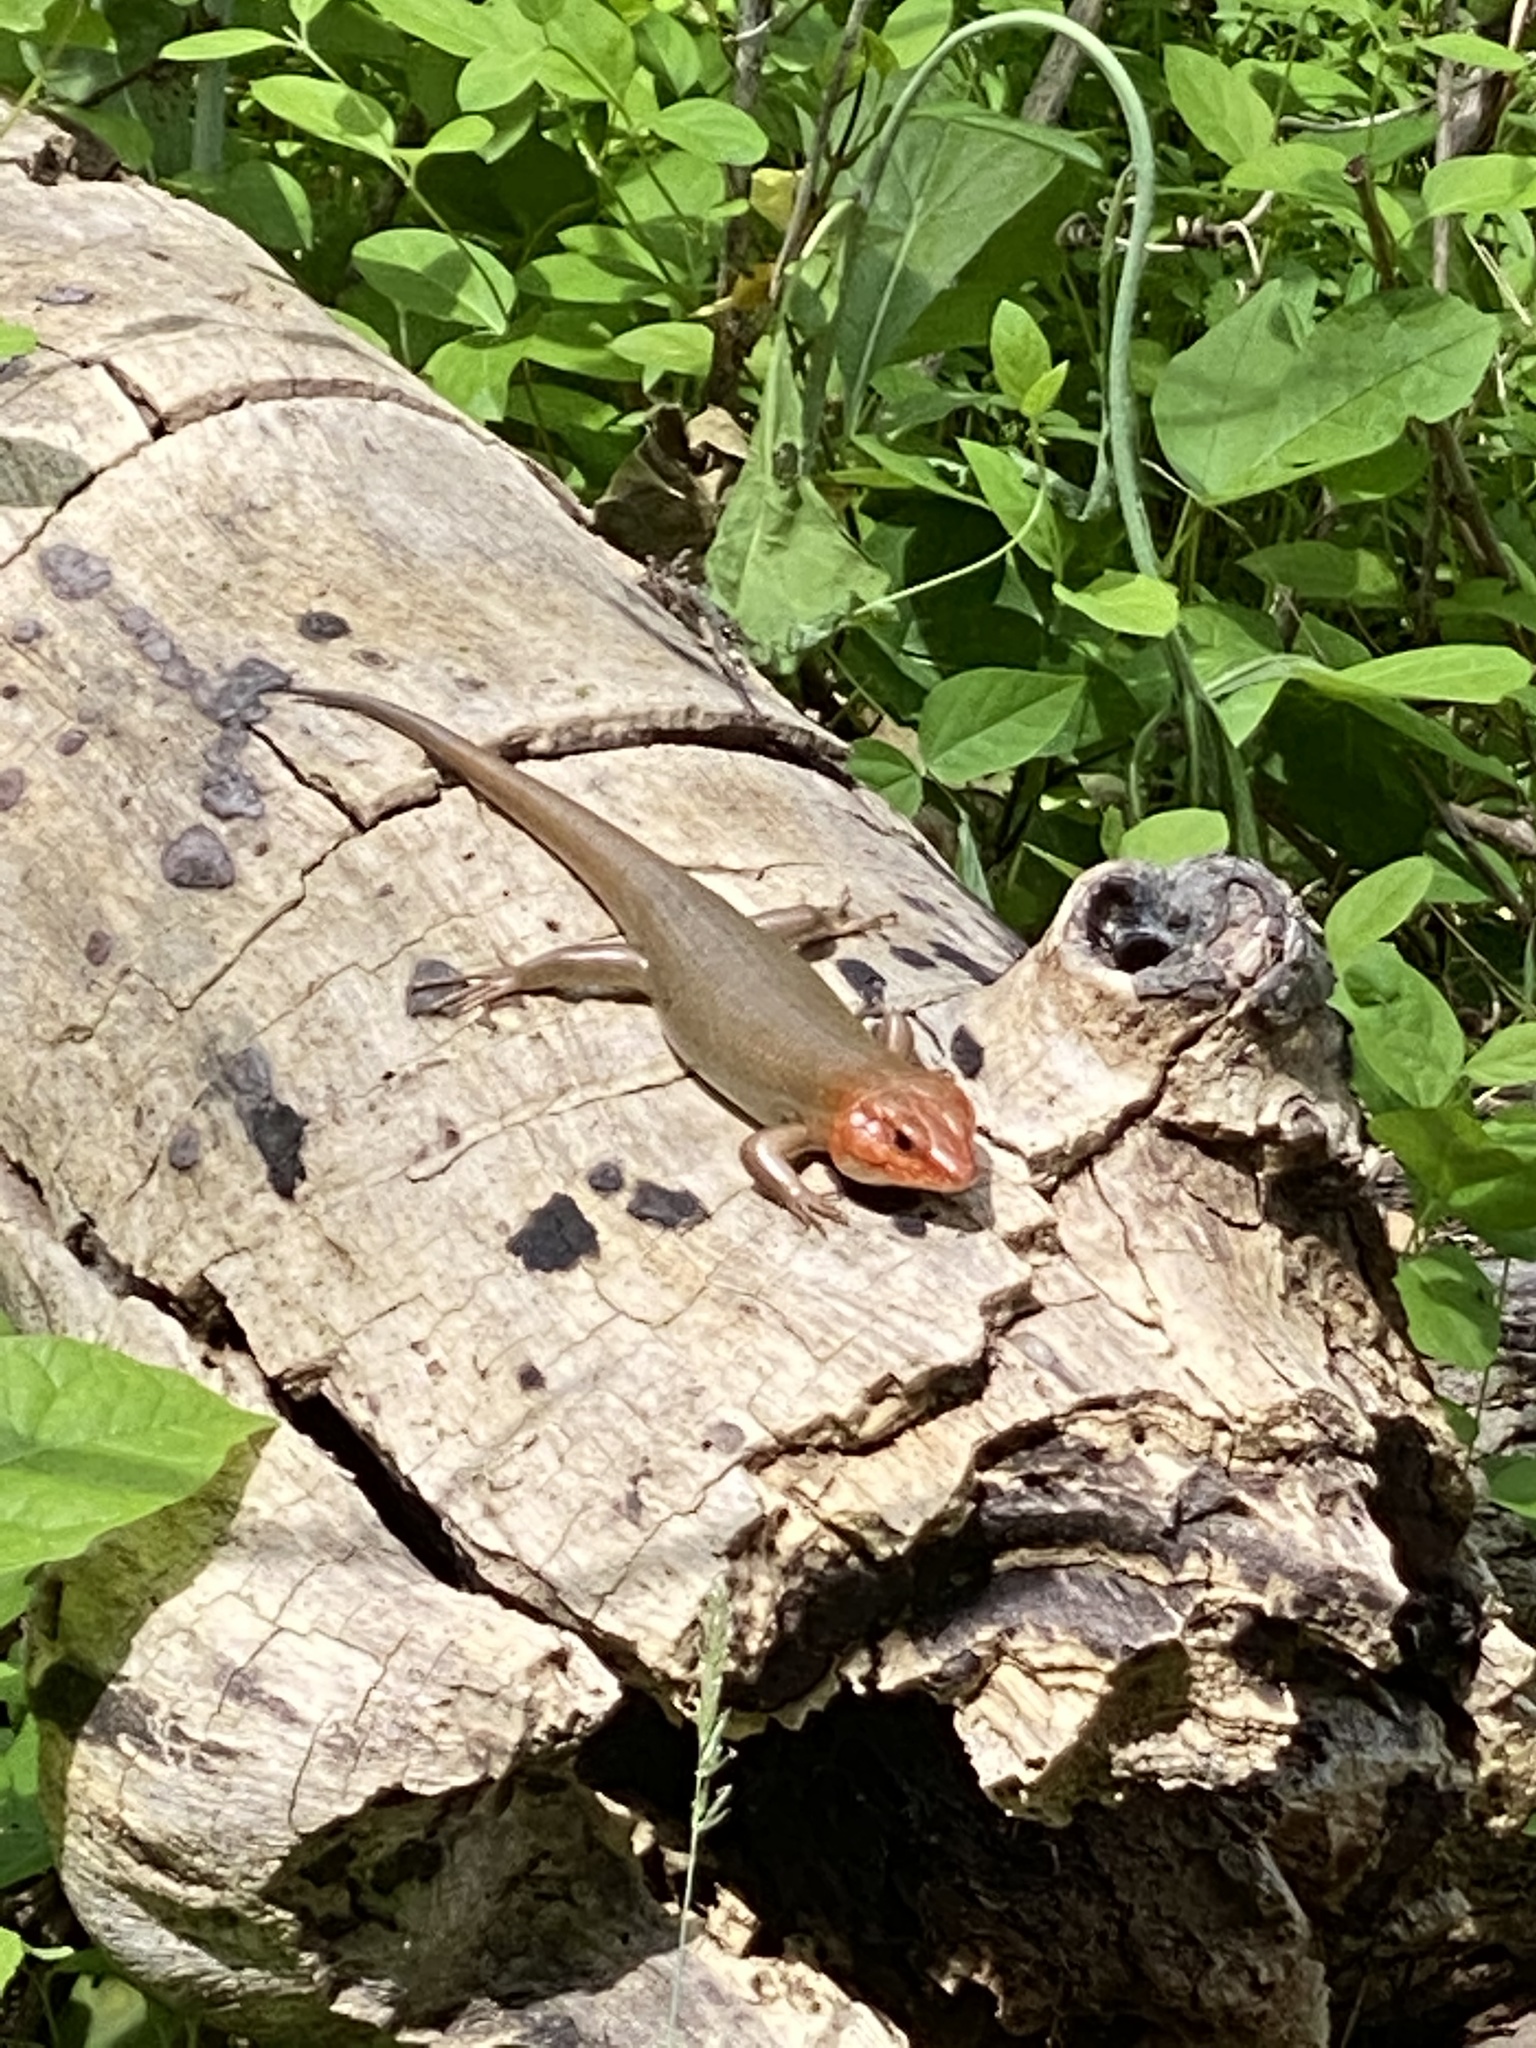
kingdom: Animalia
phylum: Chordata
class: Squamata
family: Scincidae
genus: Plestiodon
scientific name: Plestiodon laticeps
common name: Broadhead skink
